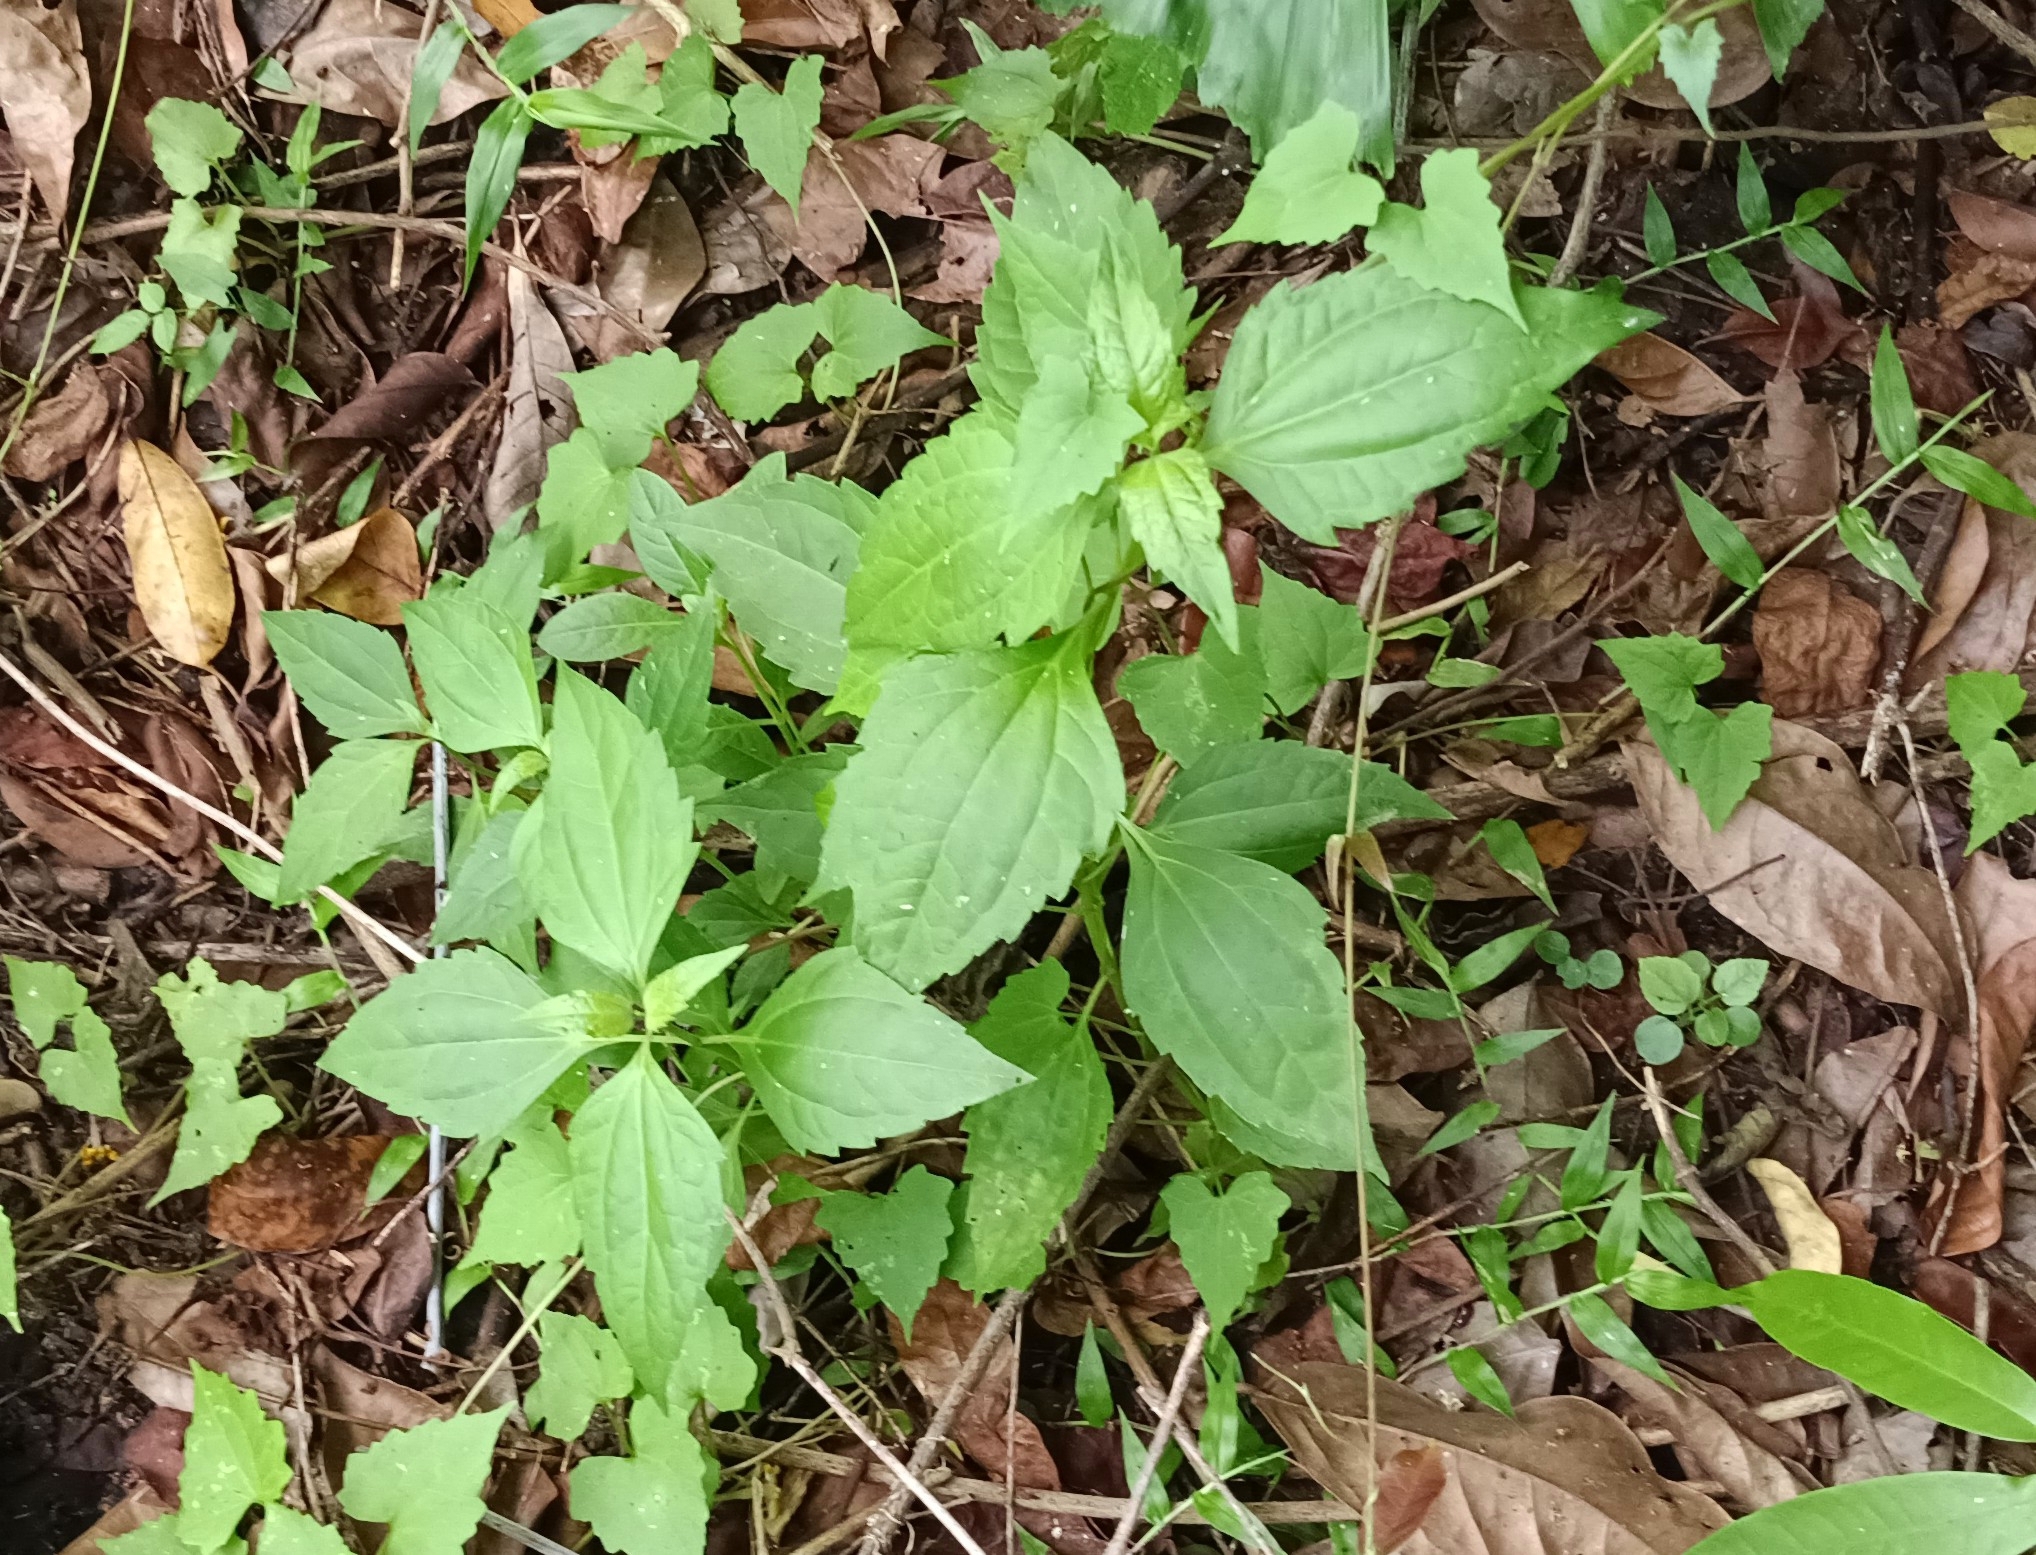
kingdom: Plantae
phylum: Tracheophyta
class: Magnoliopsida
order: Asterales
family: Asteraceae
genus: Chromolaena
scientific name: Chromolaena odorata
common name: Siamweed
